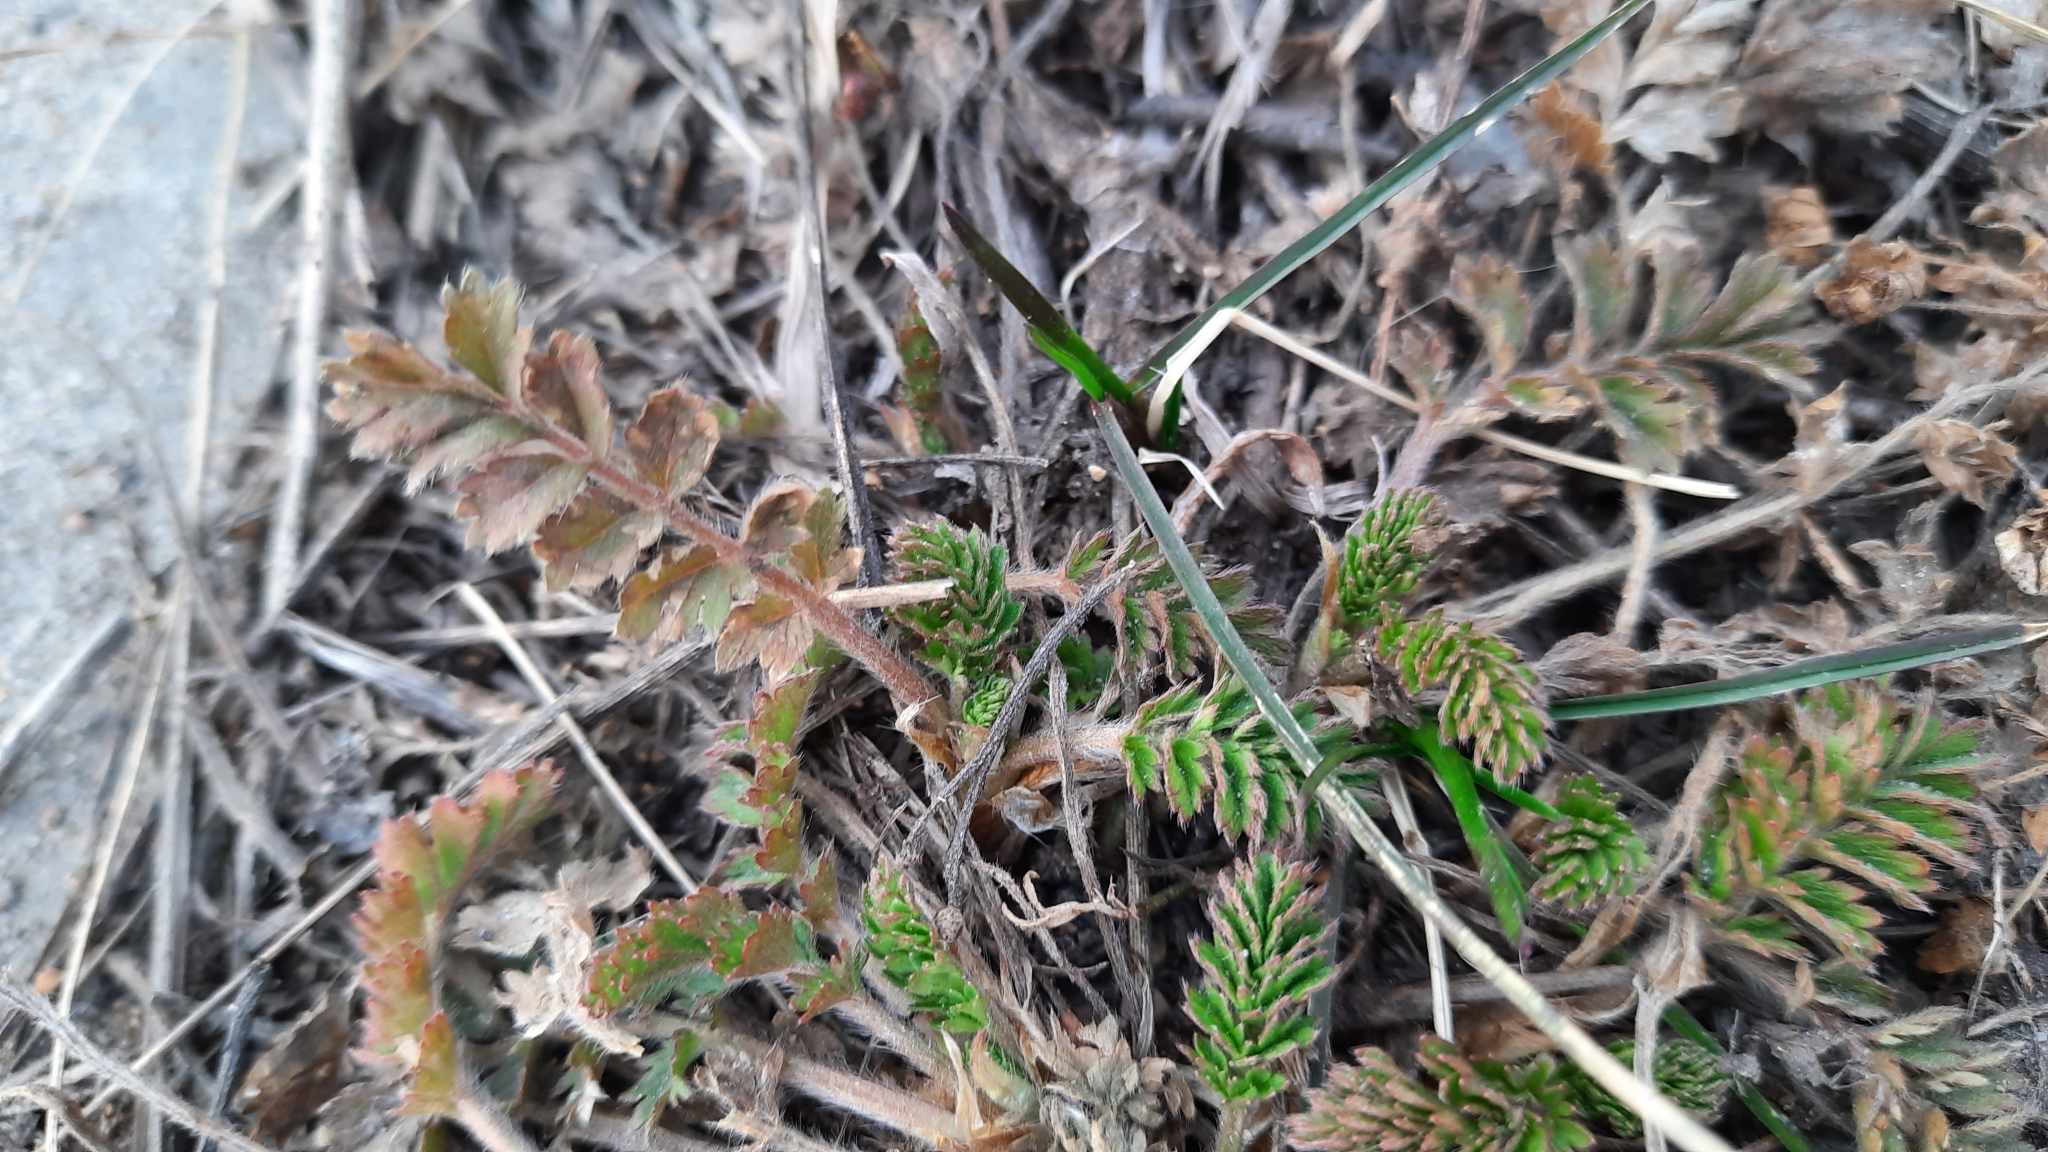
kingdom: Plantae
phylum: Tracheophyta
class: Magnoliopsida
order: Rosales
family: Rosaceae
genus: Argentina
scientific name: Argentina anserina
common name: Common silverweed
